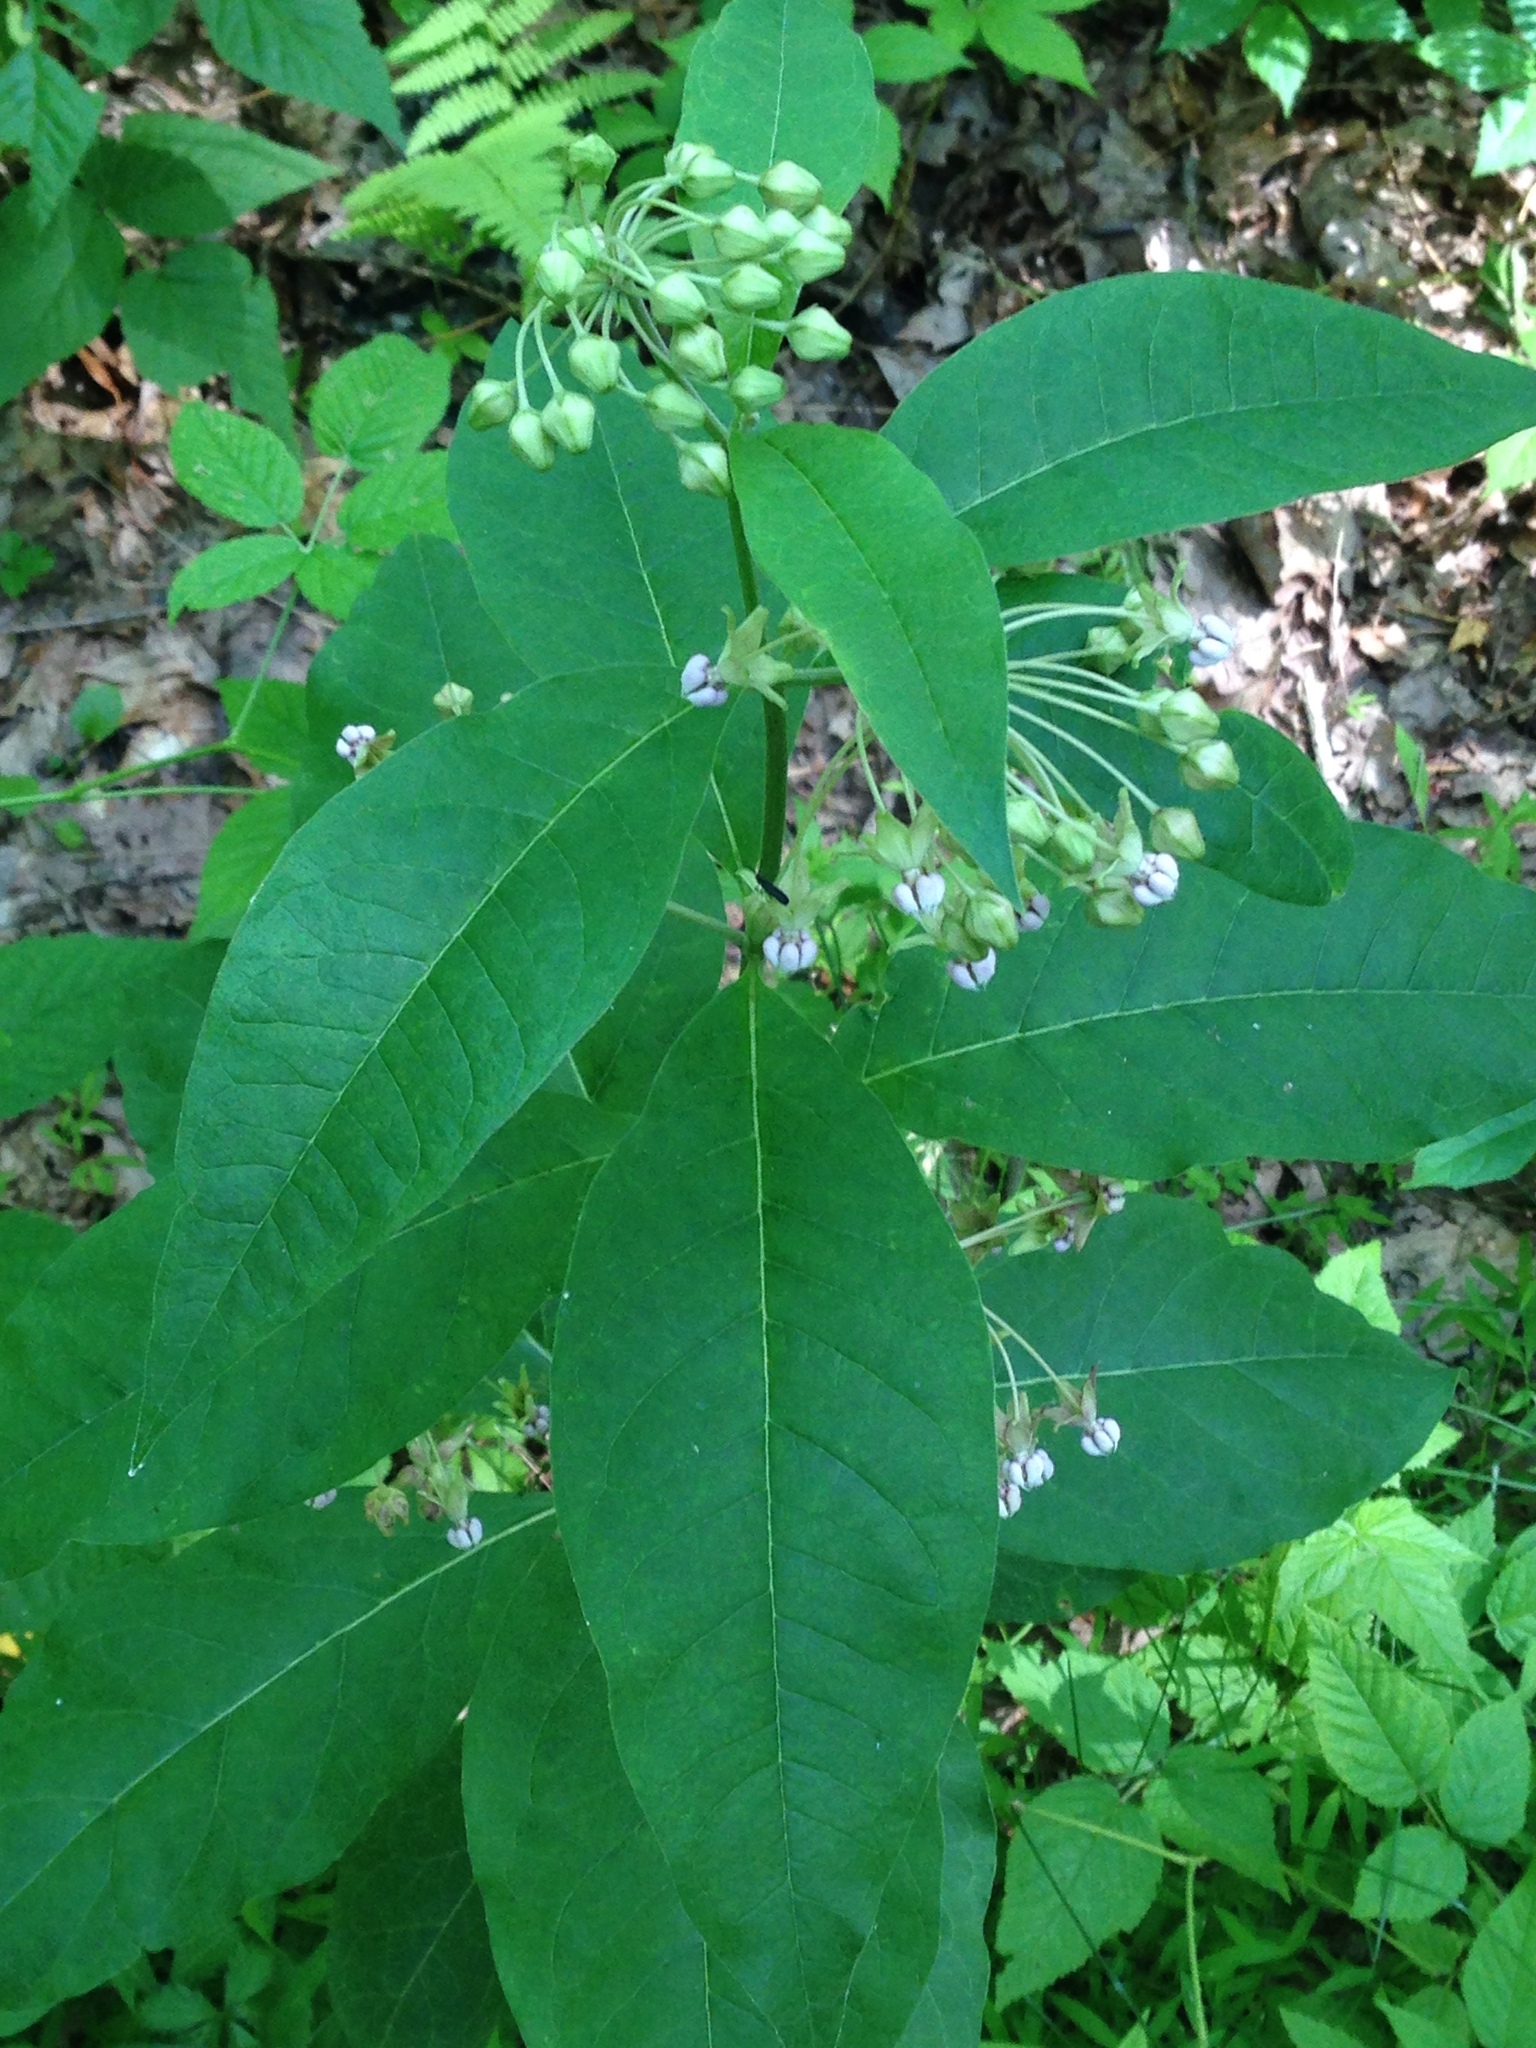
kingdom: Plantae
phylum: Tracheophyta
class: Magnoliopsida
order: Gentianales
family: Apocynaceae
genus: Asclepias
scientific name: Asclepias exaltata
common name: Poke milkweed
